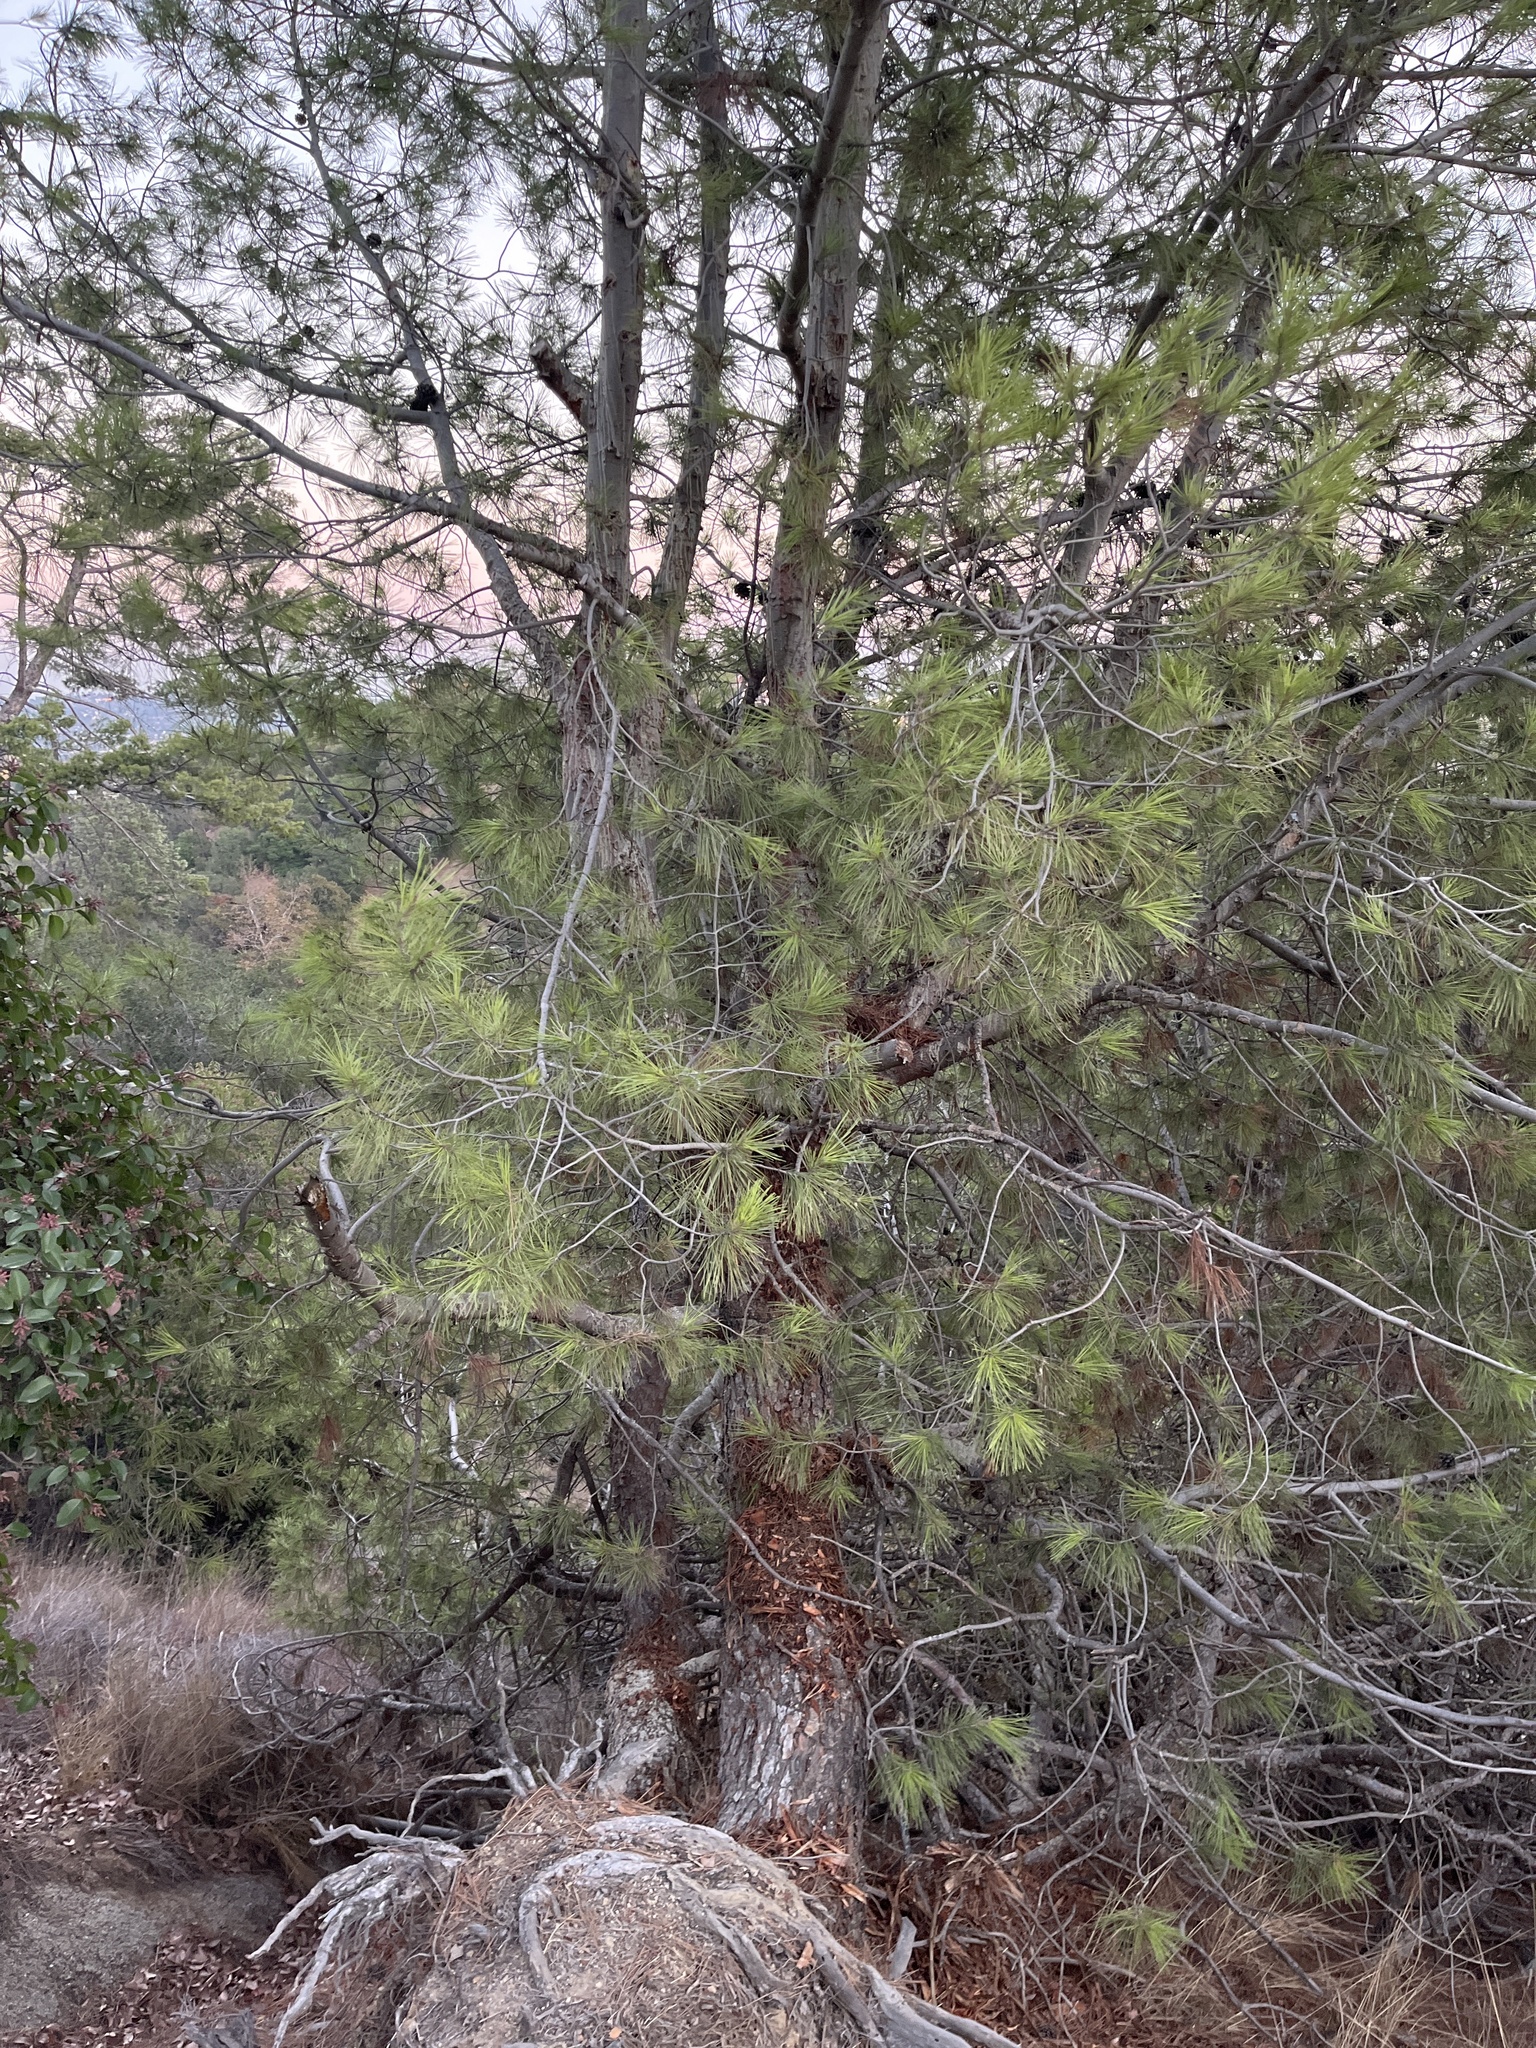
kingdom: Plantae
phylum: Tracheophyta
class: Pinopsida
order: Pinales
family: Pinaceae
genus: Pinus
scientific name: Pinus halepensis
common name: Aleppo pine
